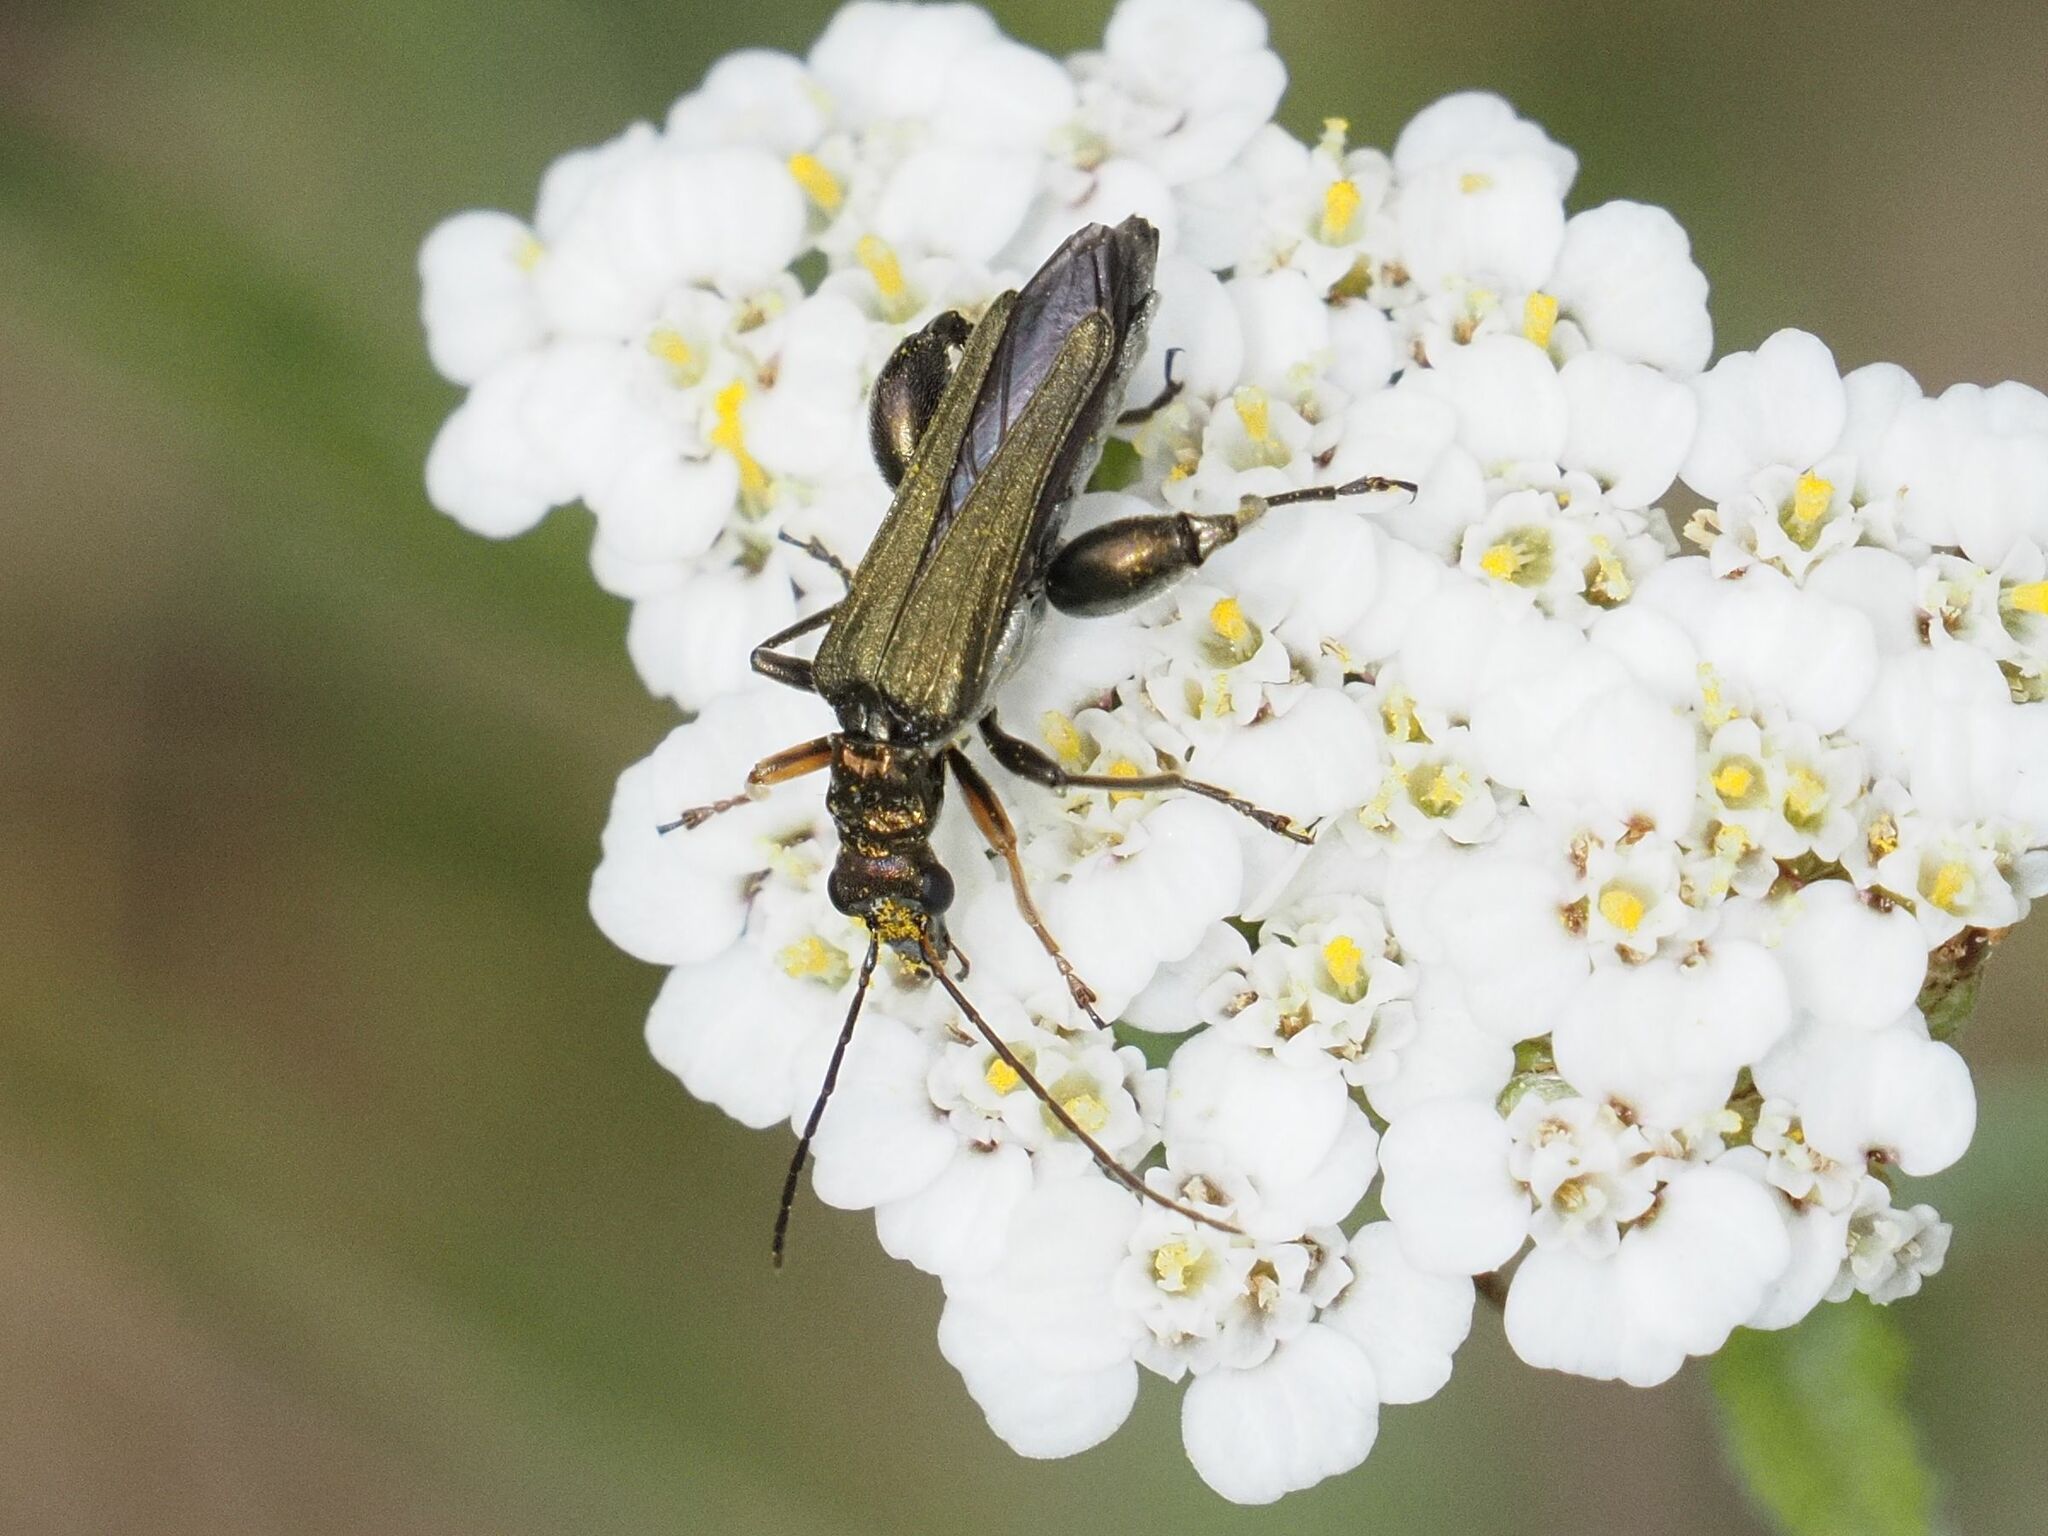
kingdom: Animalia
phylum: Arthropoda
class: Insecta
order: Coleoptera
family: Oedemeridae
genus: Oedemera
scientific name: Oedemera flavipes
